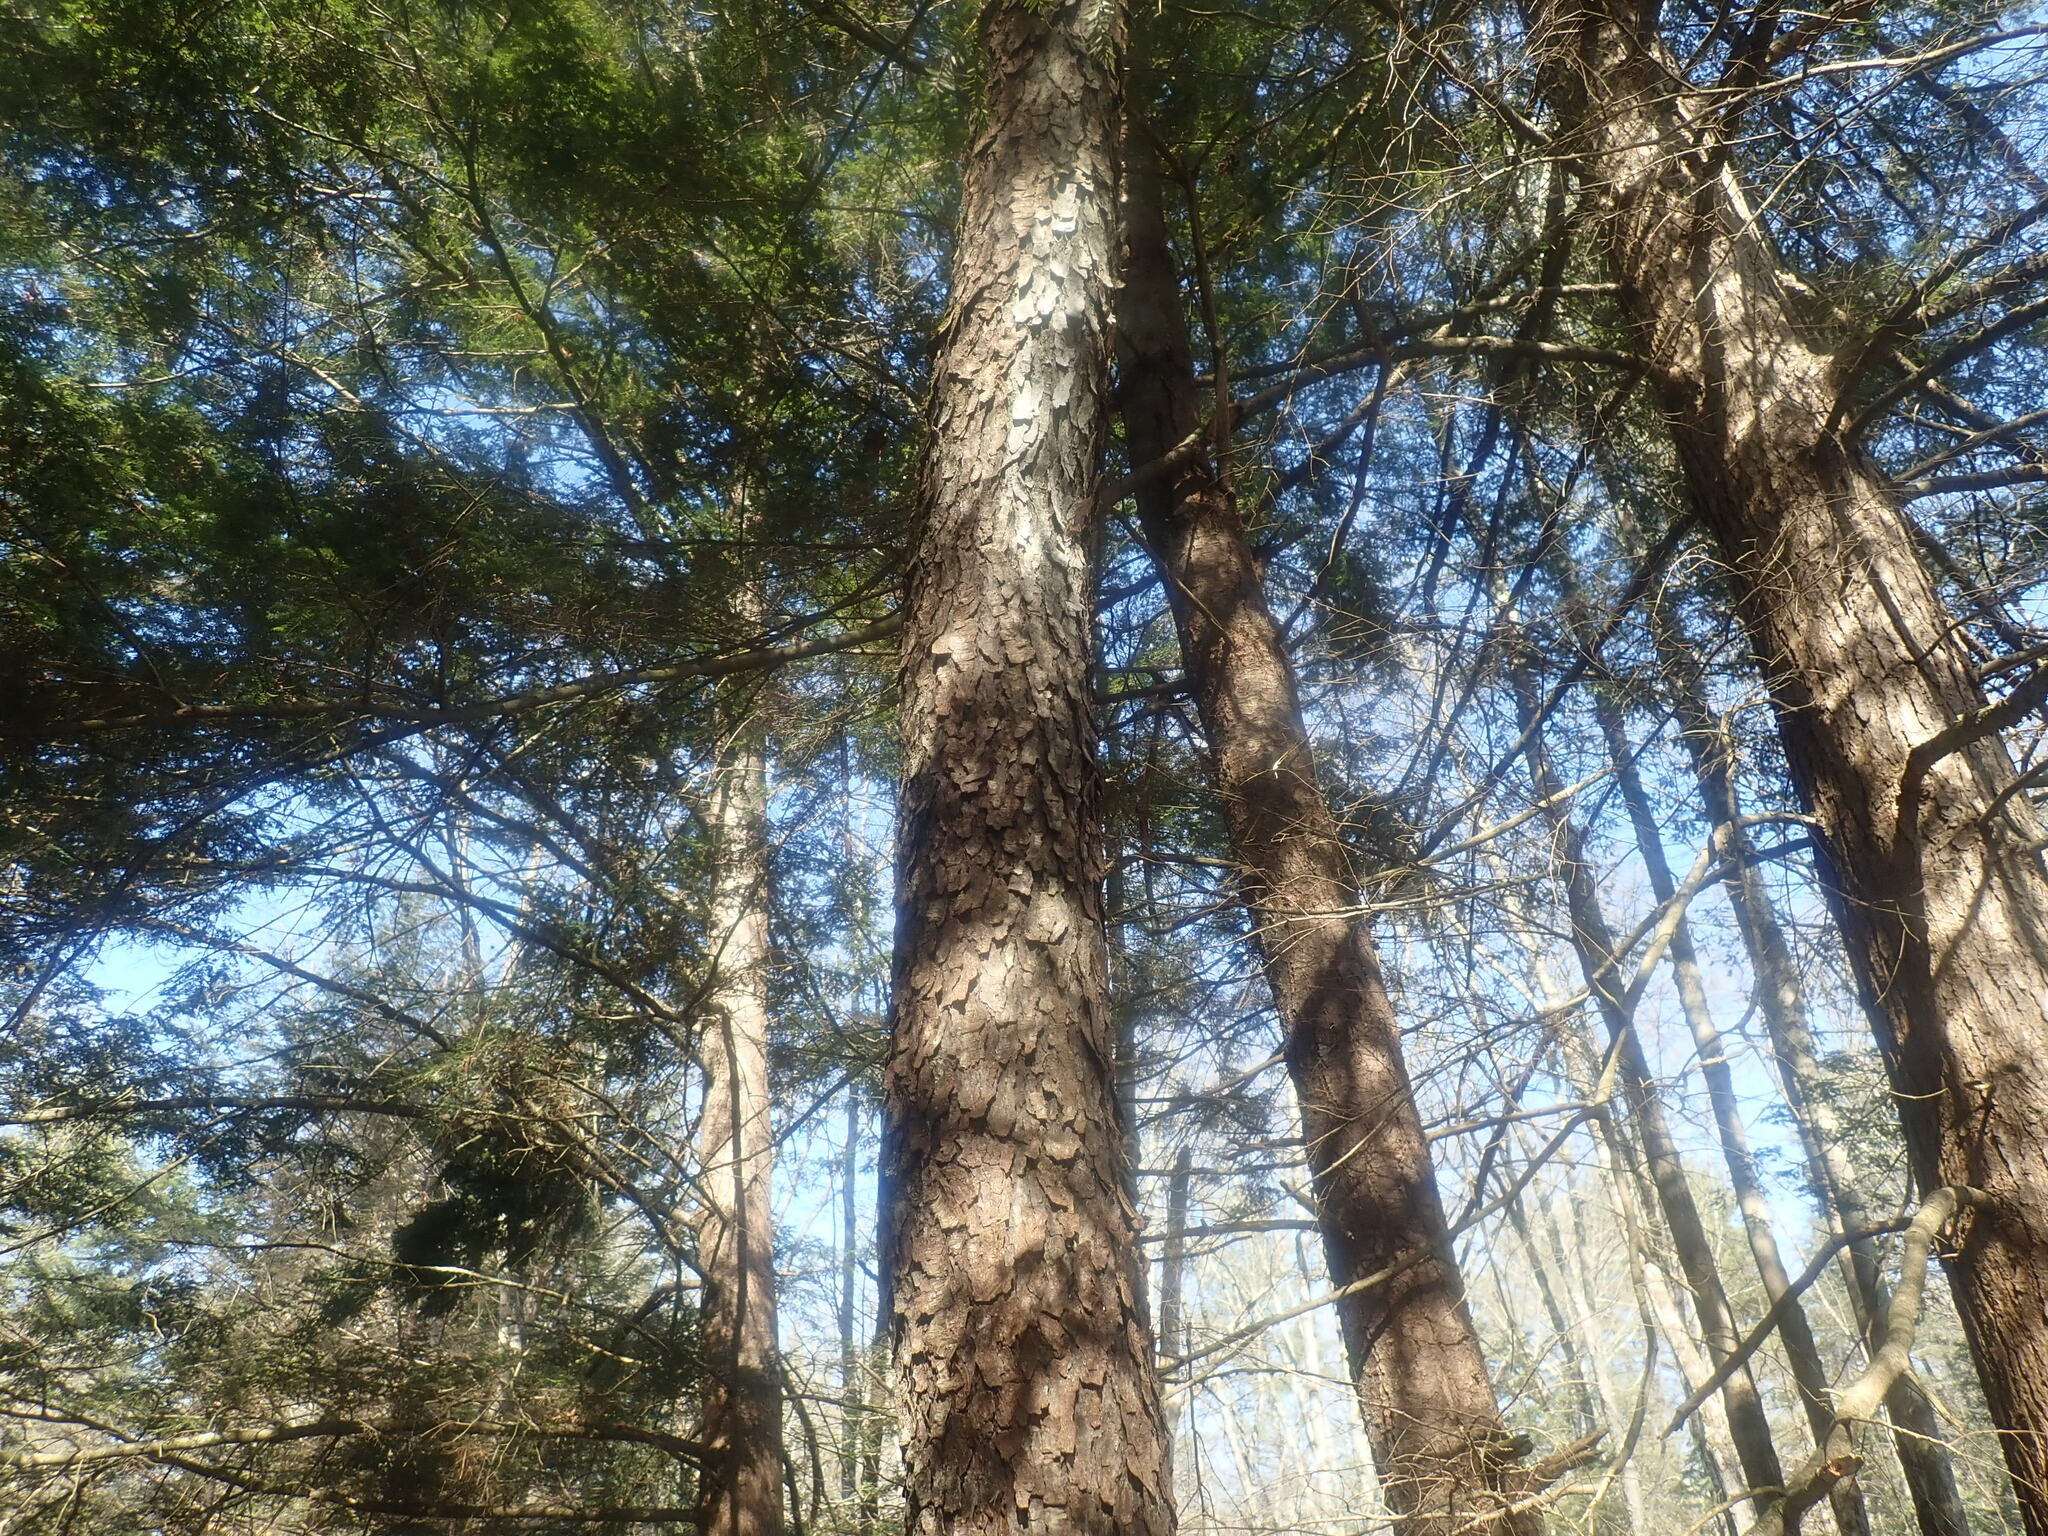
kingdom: Plantae
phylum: Tracheophyta
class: Magnoliopsida
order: Rosales
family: Rosaceae
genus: Prunus
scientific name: Prunus serotina
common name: Black cherry
